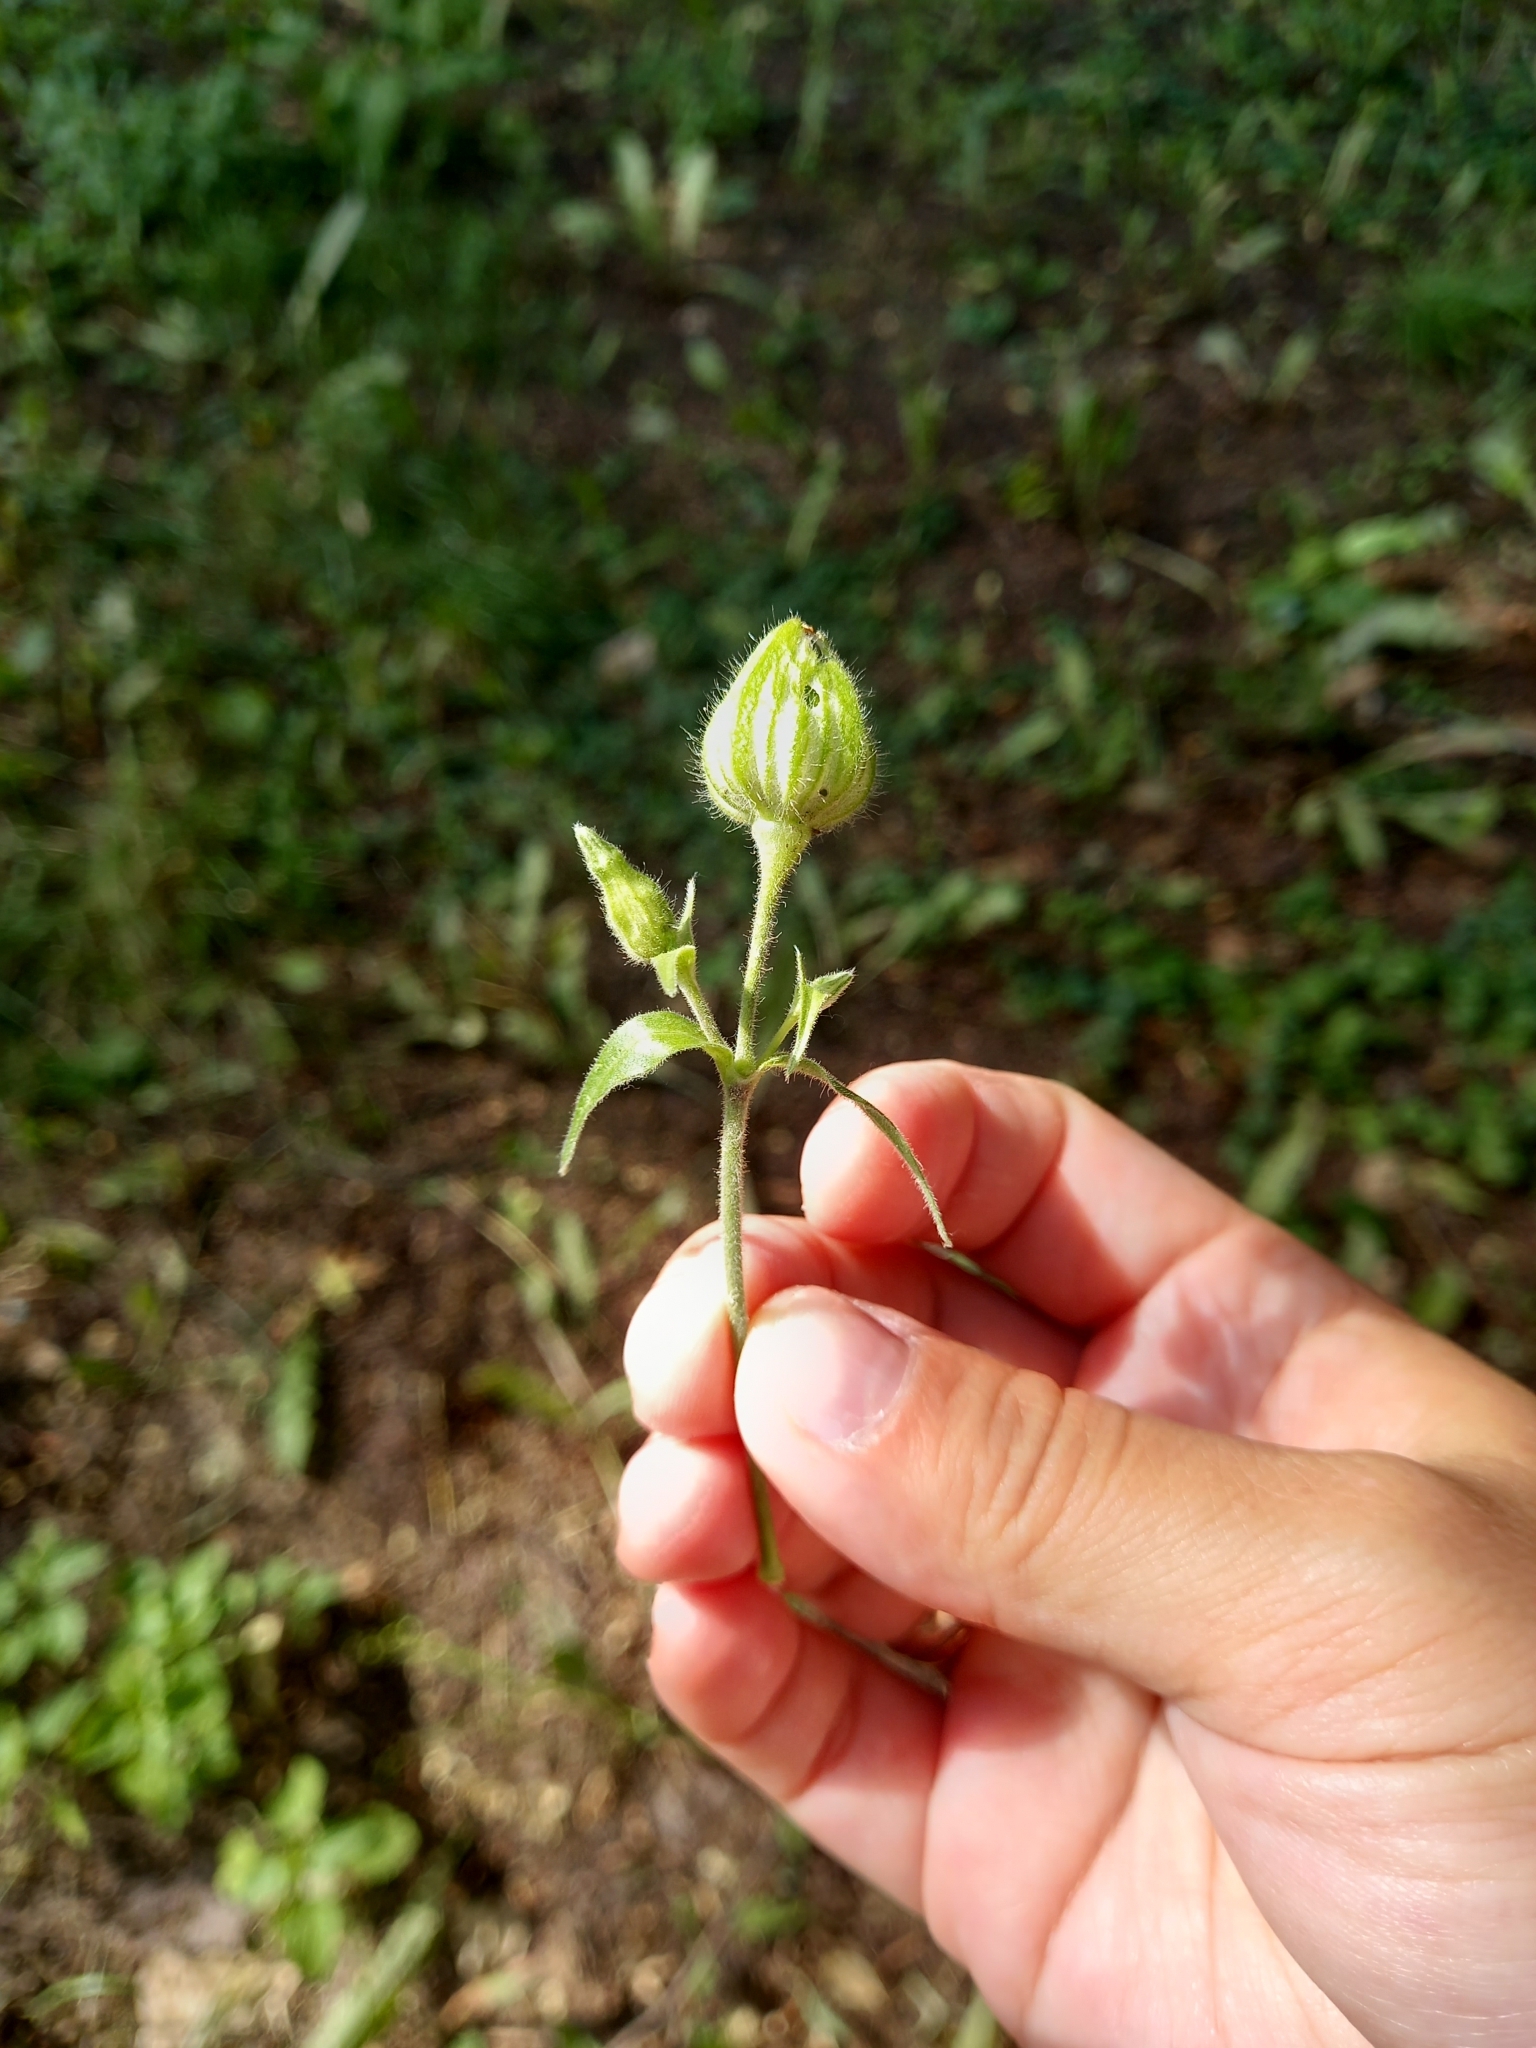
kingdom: Plantae
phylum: Tracheophyta
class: Magnoliopsida
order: Caryophyllales
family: Caryophyllaceae
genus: Silene
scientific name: Silene latifolia
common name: White campion
